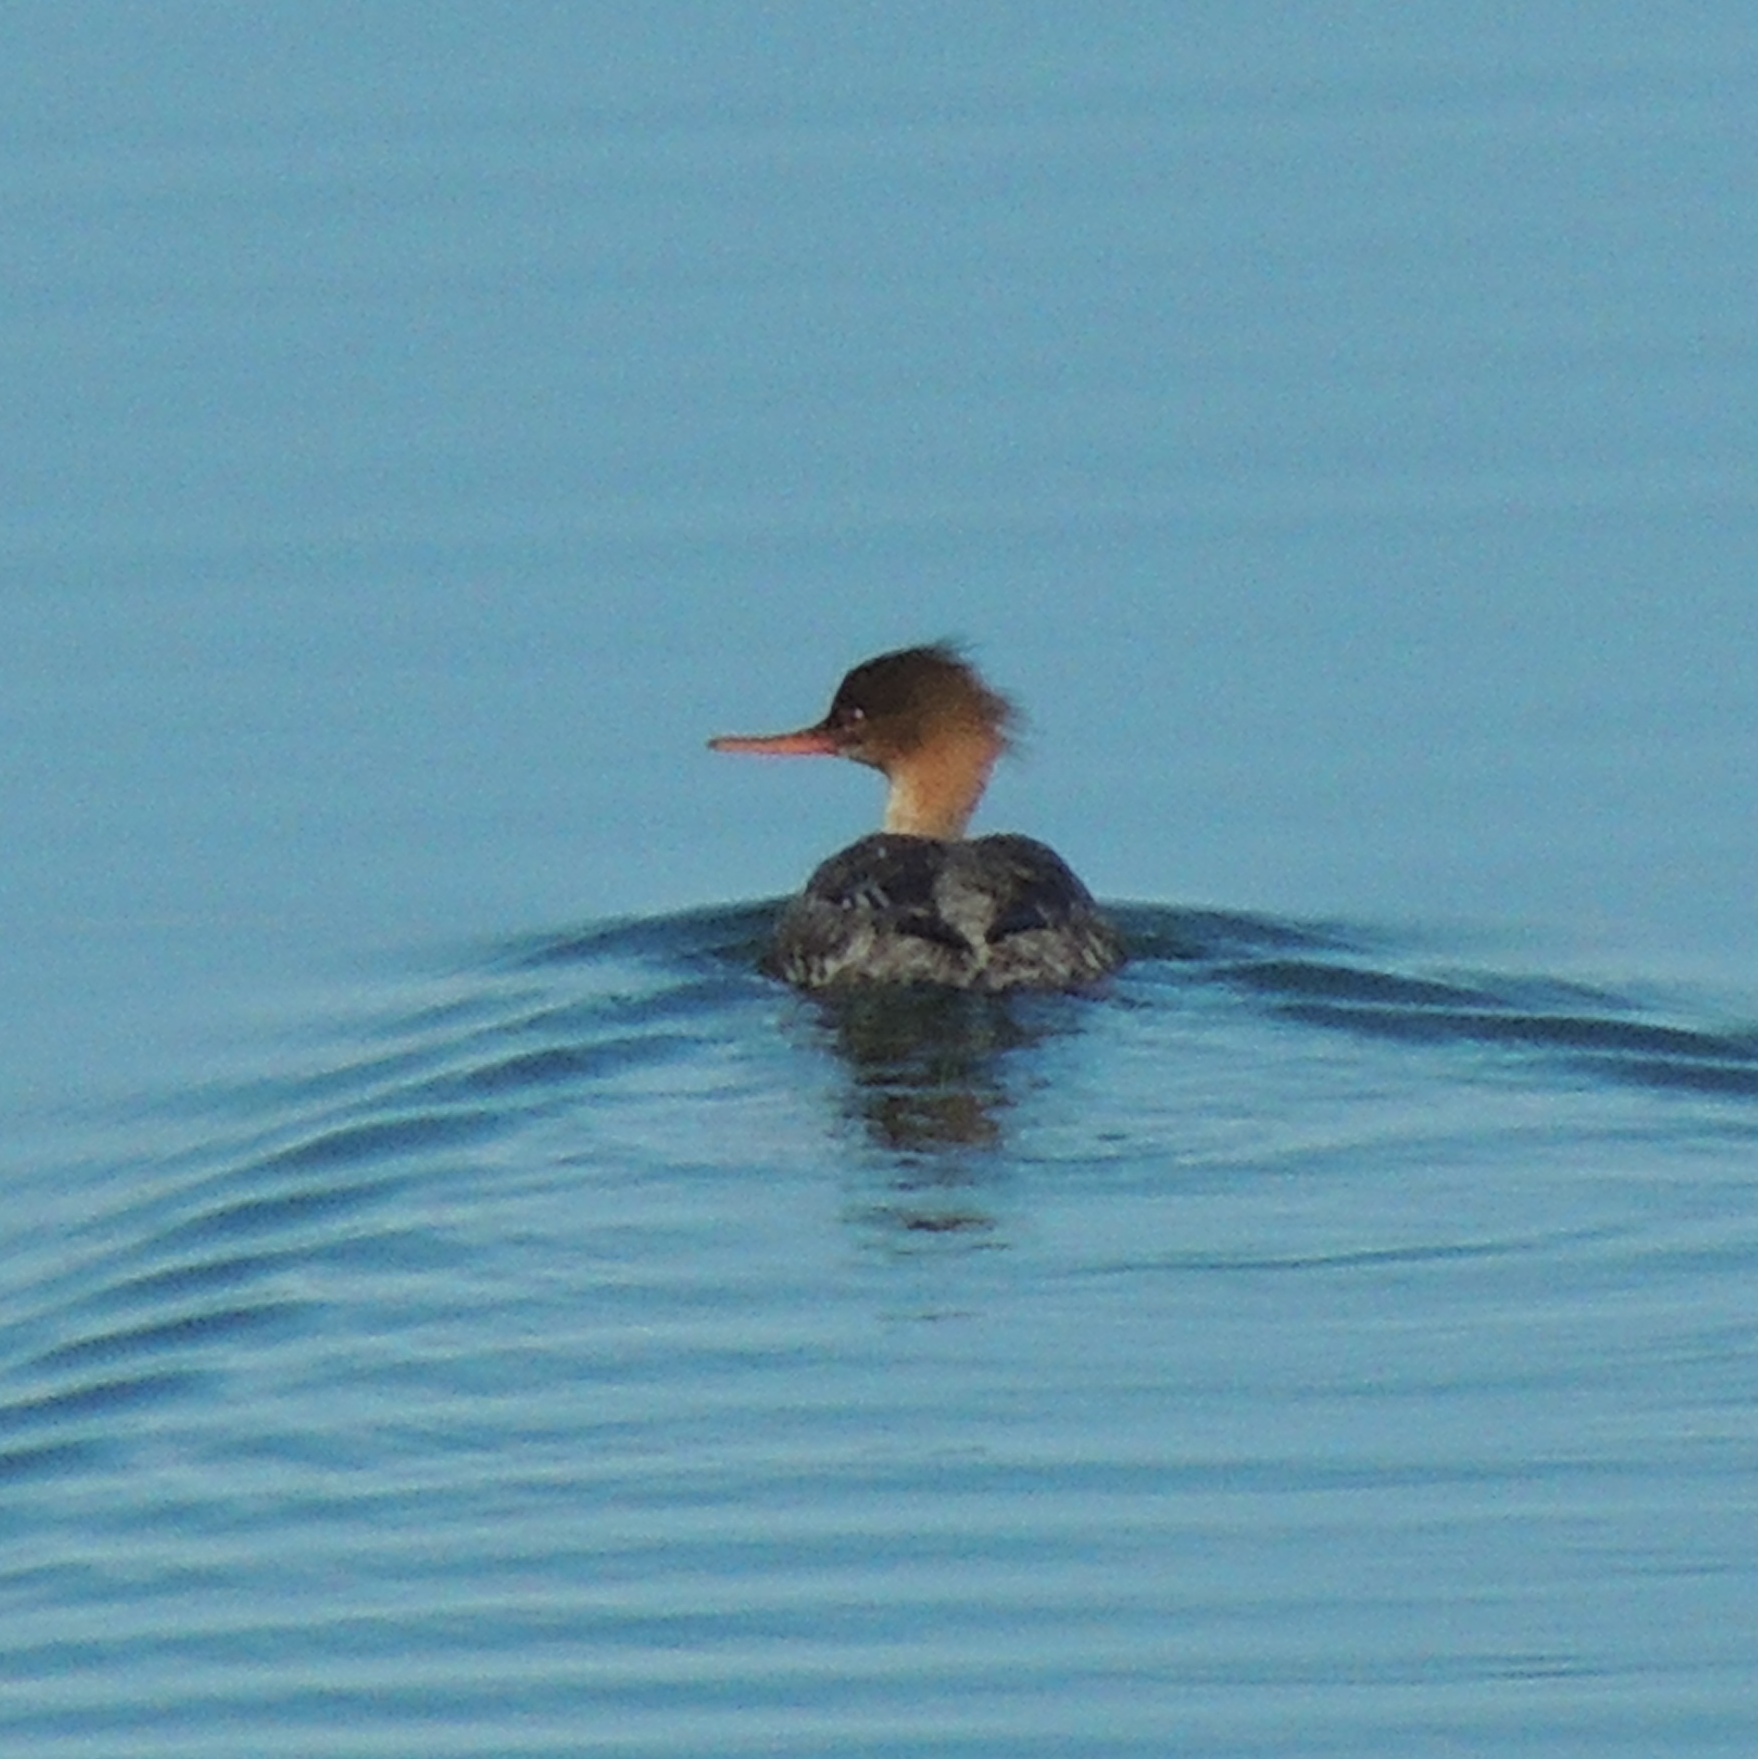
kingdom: Animalia
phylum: Chordata
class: Aves
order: Anseriformes
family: Anatidae
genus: Mergus
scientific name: Mergus serrator
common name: Red-breasted merganser
